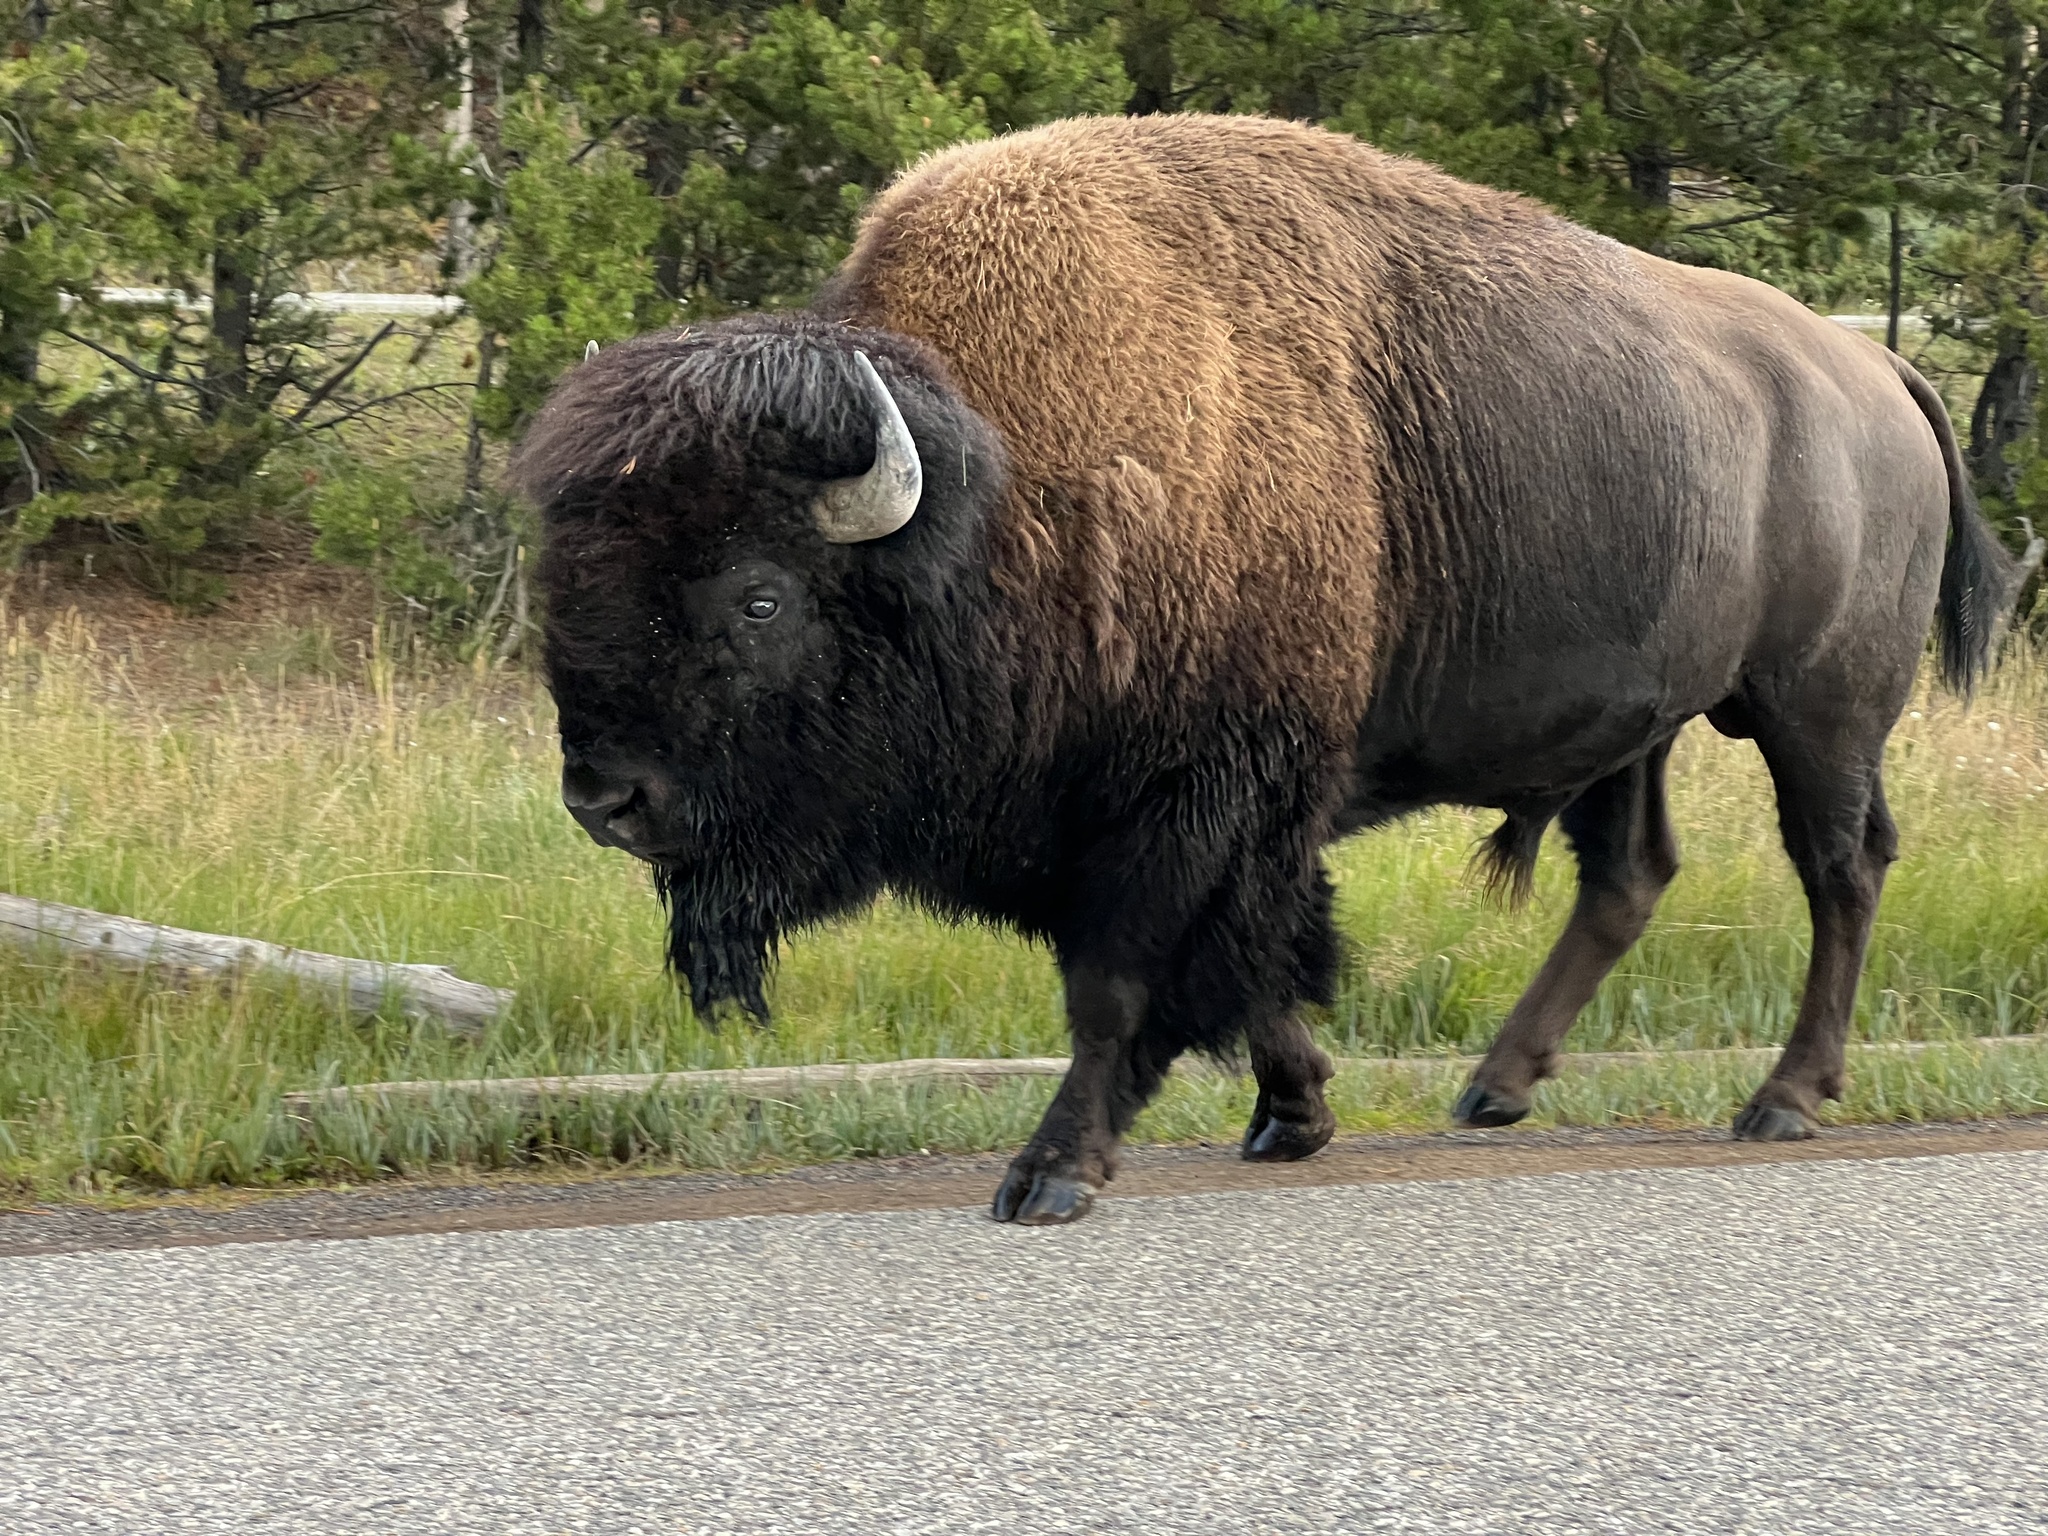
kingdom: Animalia
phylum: Chordata
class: Mammalia
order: Artiodactyla
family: Bovidae
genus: Bison
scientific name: Bison bison
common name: American bison
